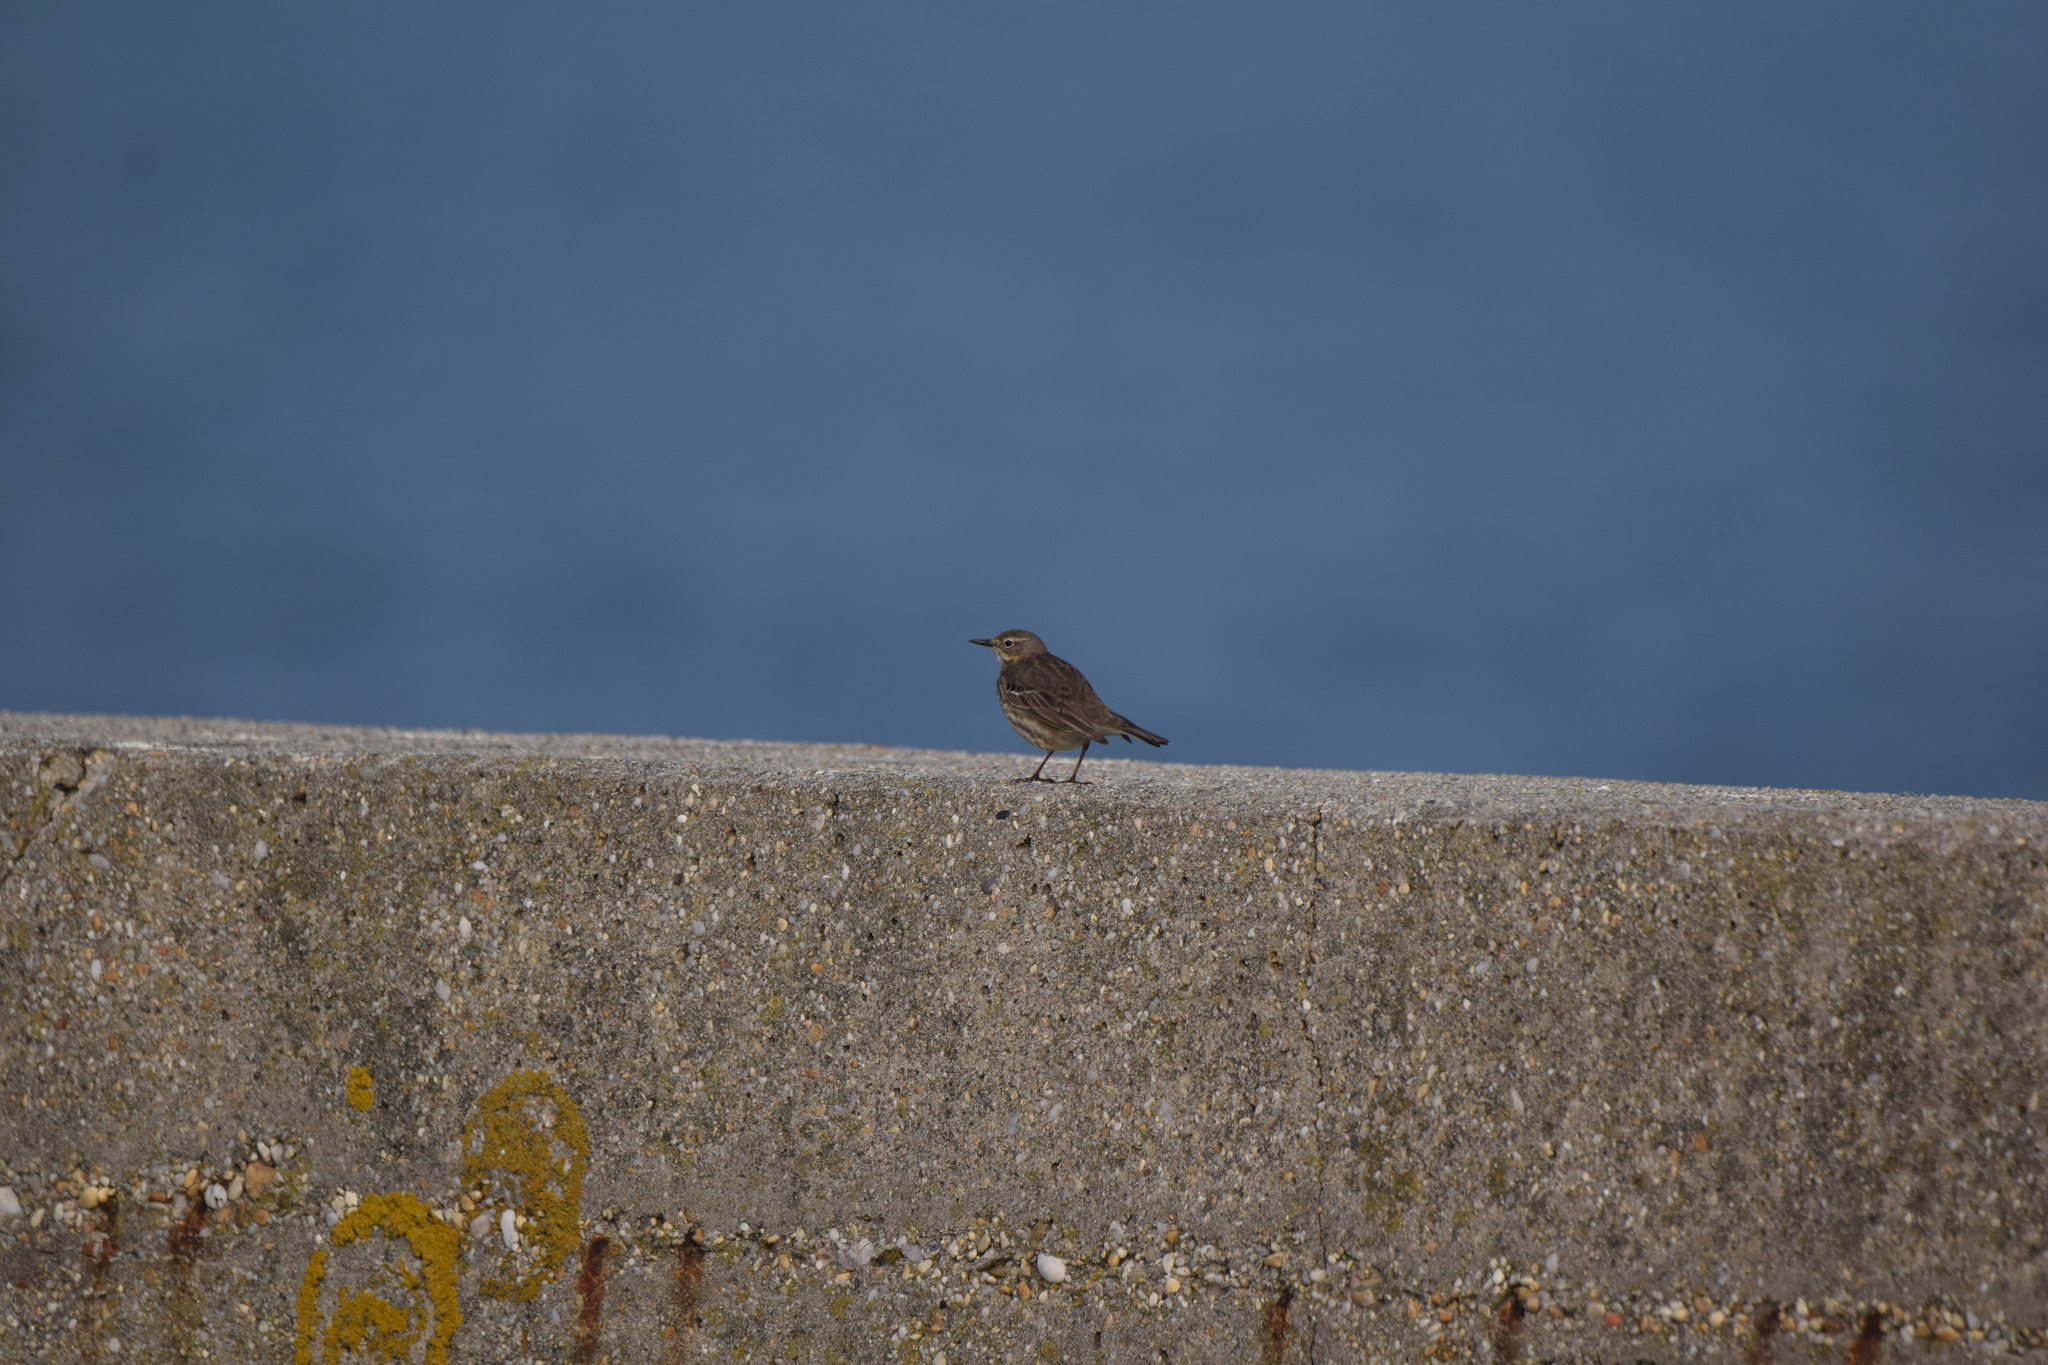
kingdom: Animalia
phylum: Chordata
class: Aves
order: Passeriformes
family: Motacillidae
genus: Anthus
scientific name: Anthus petrosus
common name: Eurasian rock pipit
